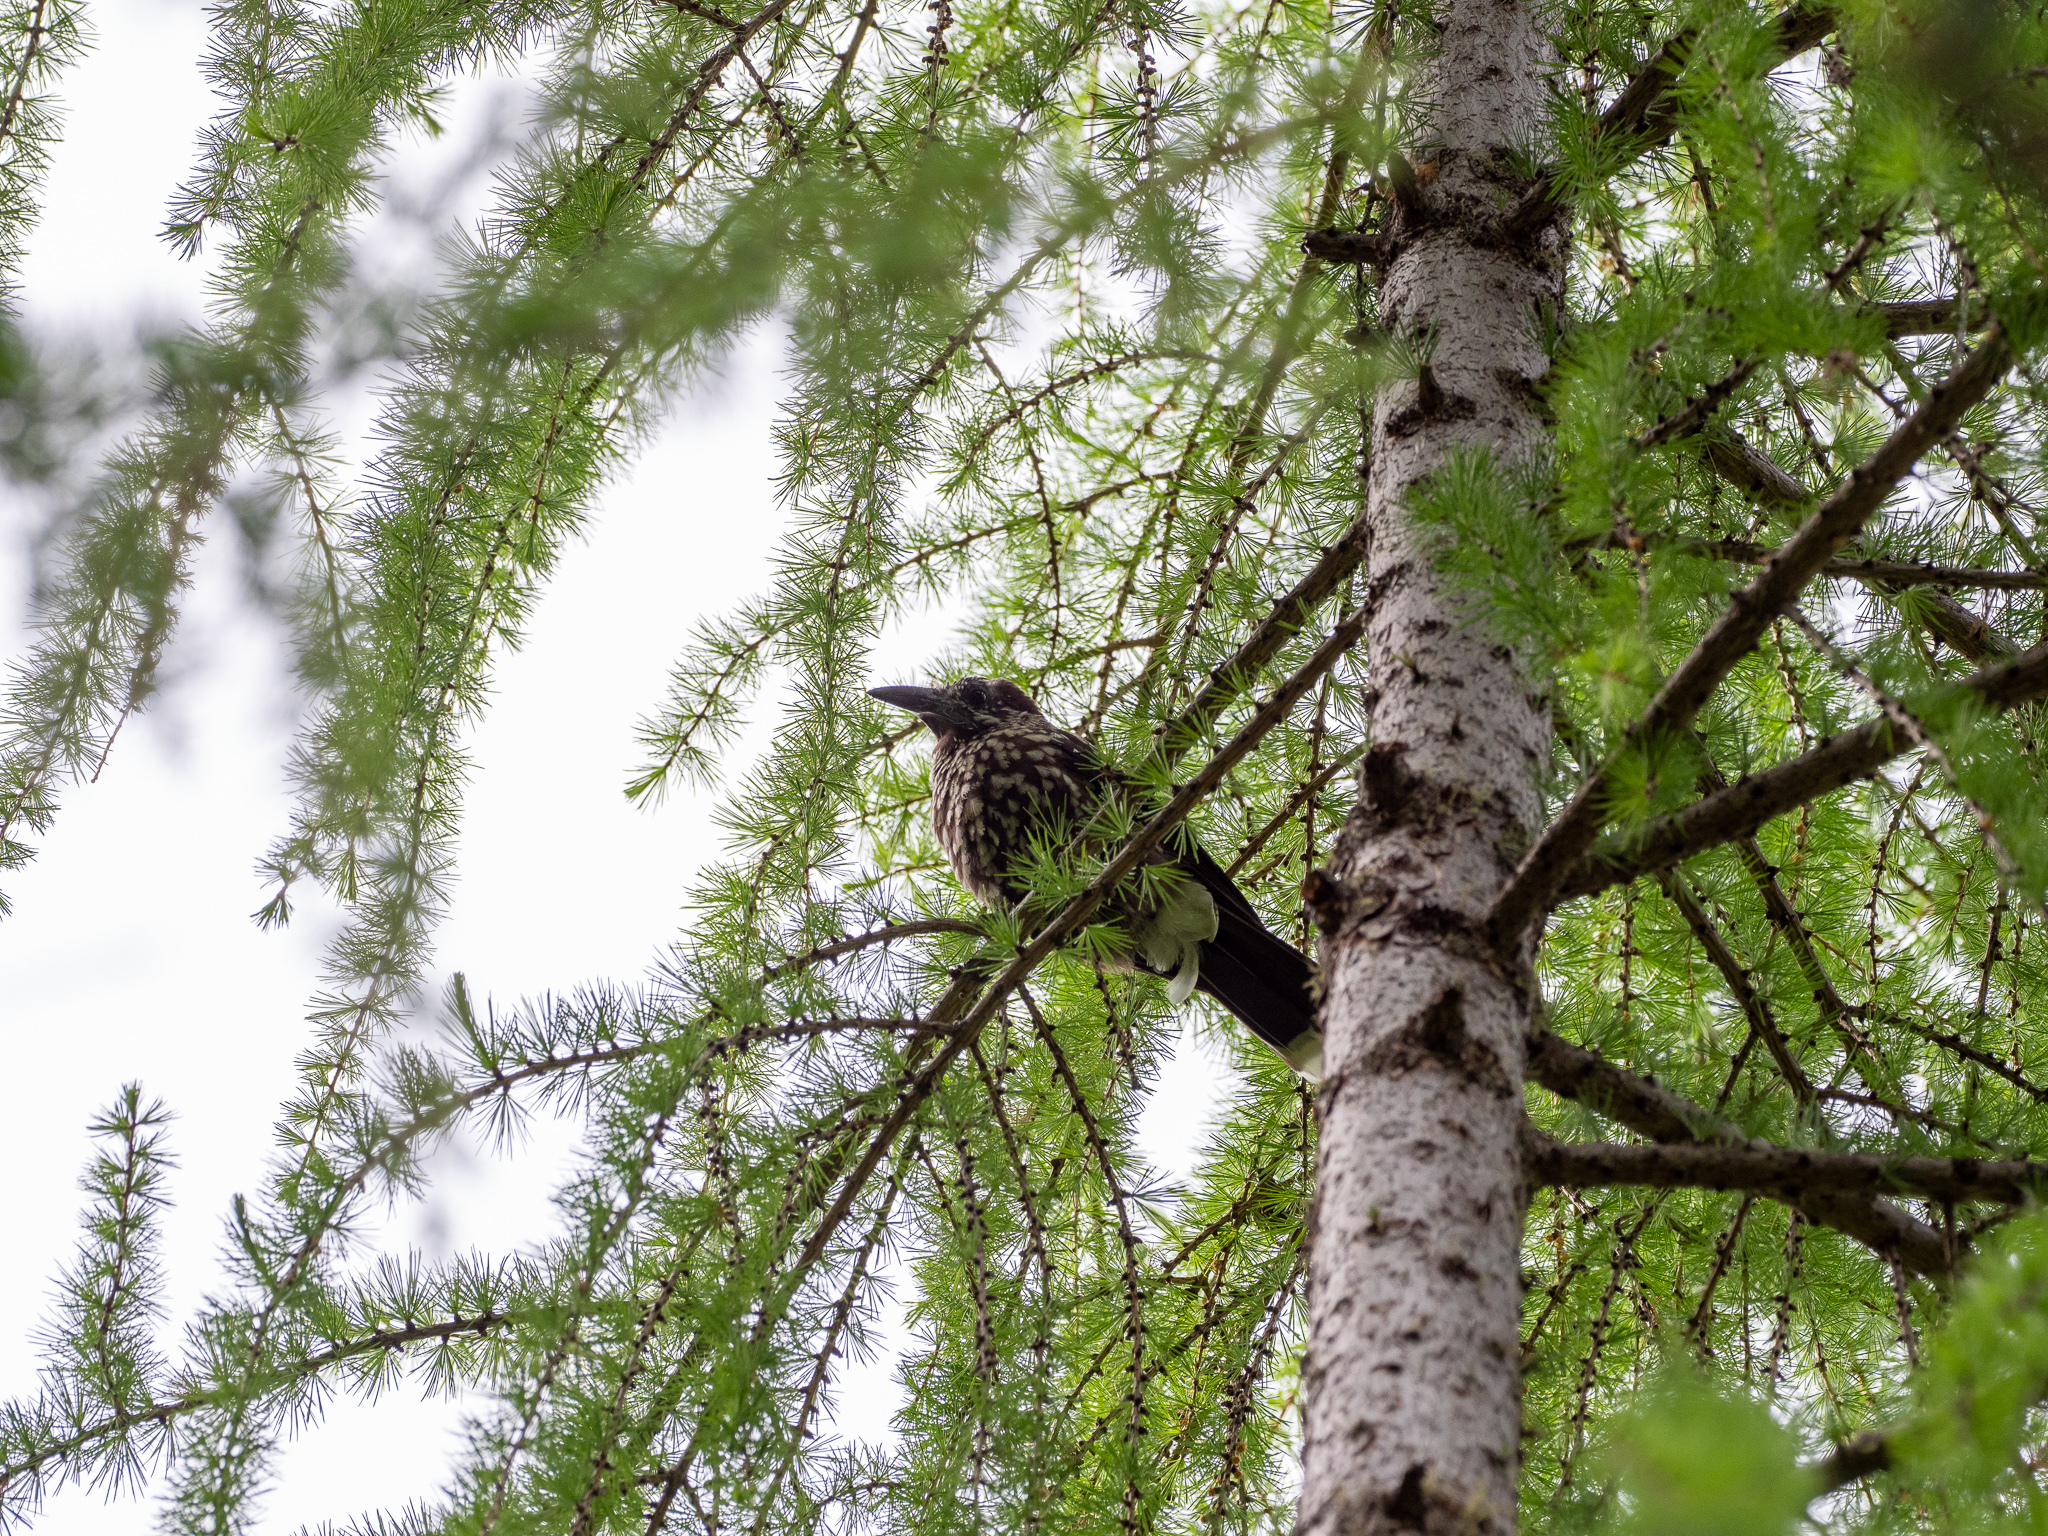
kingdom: Animalia
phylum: Chordata
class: Aves
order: Passeriformes
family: Corvidae
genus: Nucifraga
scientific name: Nucifraga caryocatactes
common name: Spotted nutcracker
